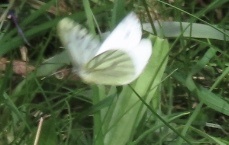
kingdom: Animalia
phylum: Arthropoda
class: Insecta
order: Lepidoptera
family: Pieridae
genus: Pieris
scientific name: Pieris napi
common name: Green-veined white
